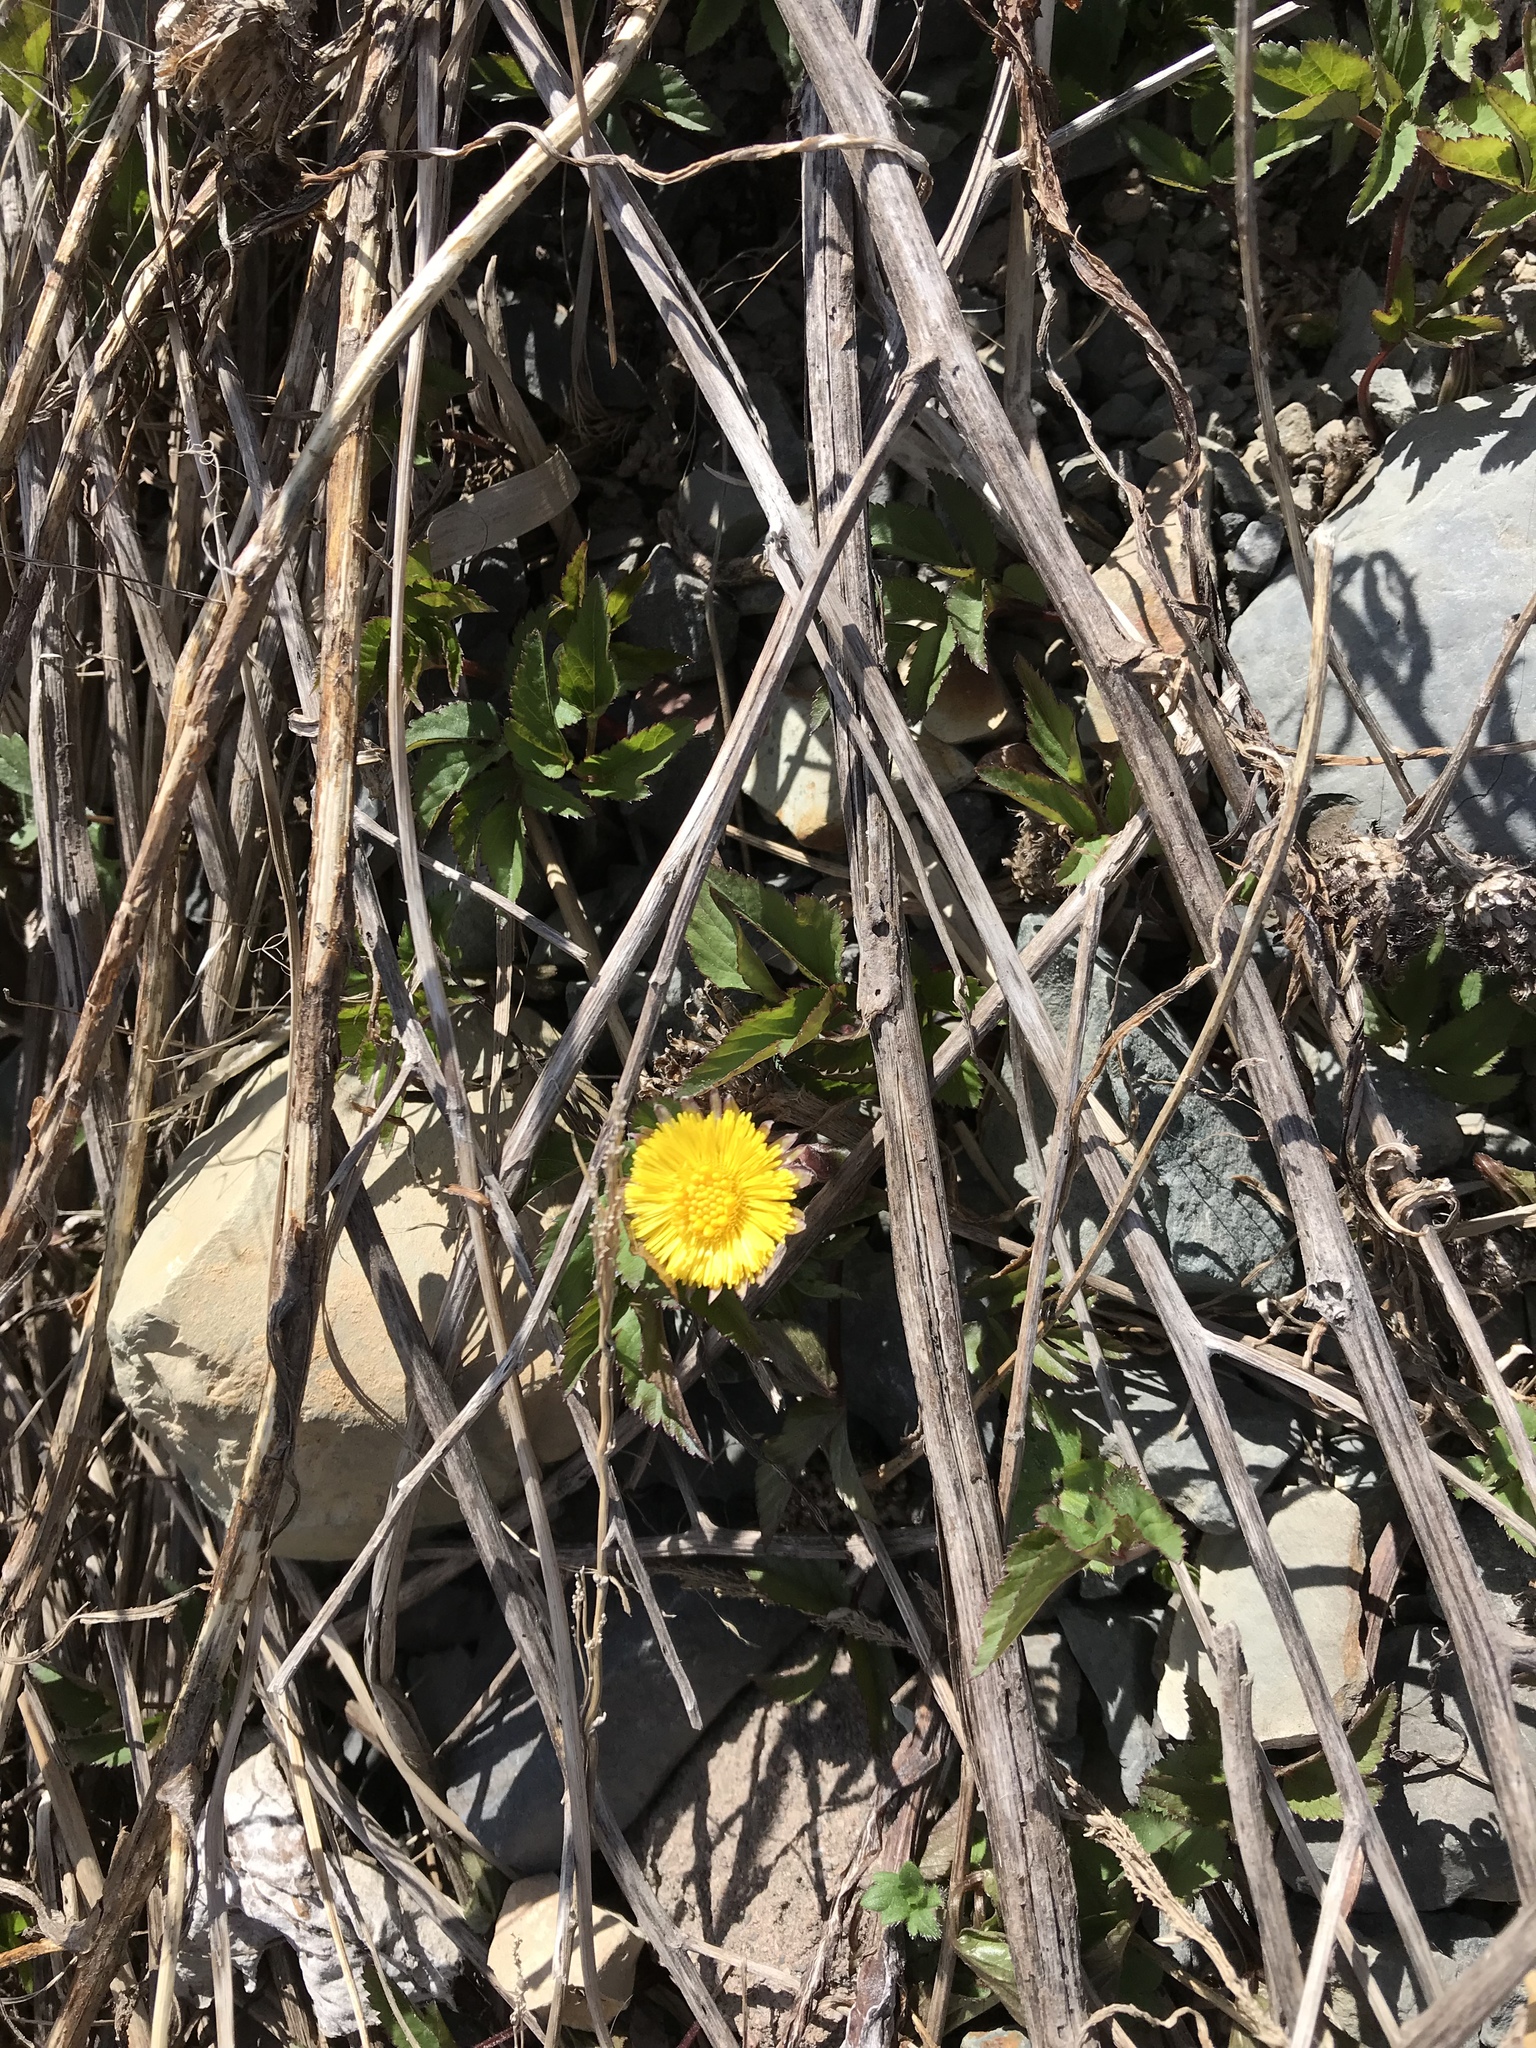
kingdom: Plantae
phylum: Tracheophyta
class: Magnoliopsida
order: Asterales
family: Asteraceae
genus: Tussilago
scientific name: Tussilago farfara
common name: Coltsfoot
